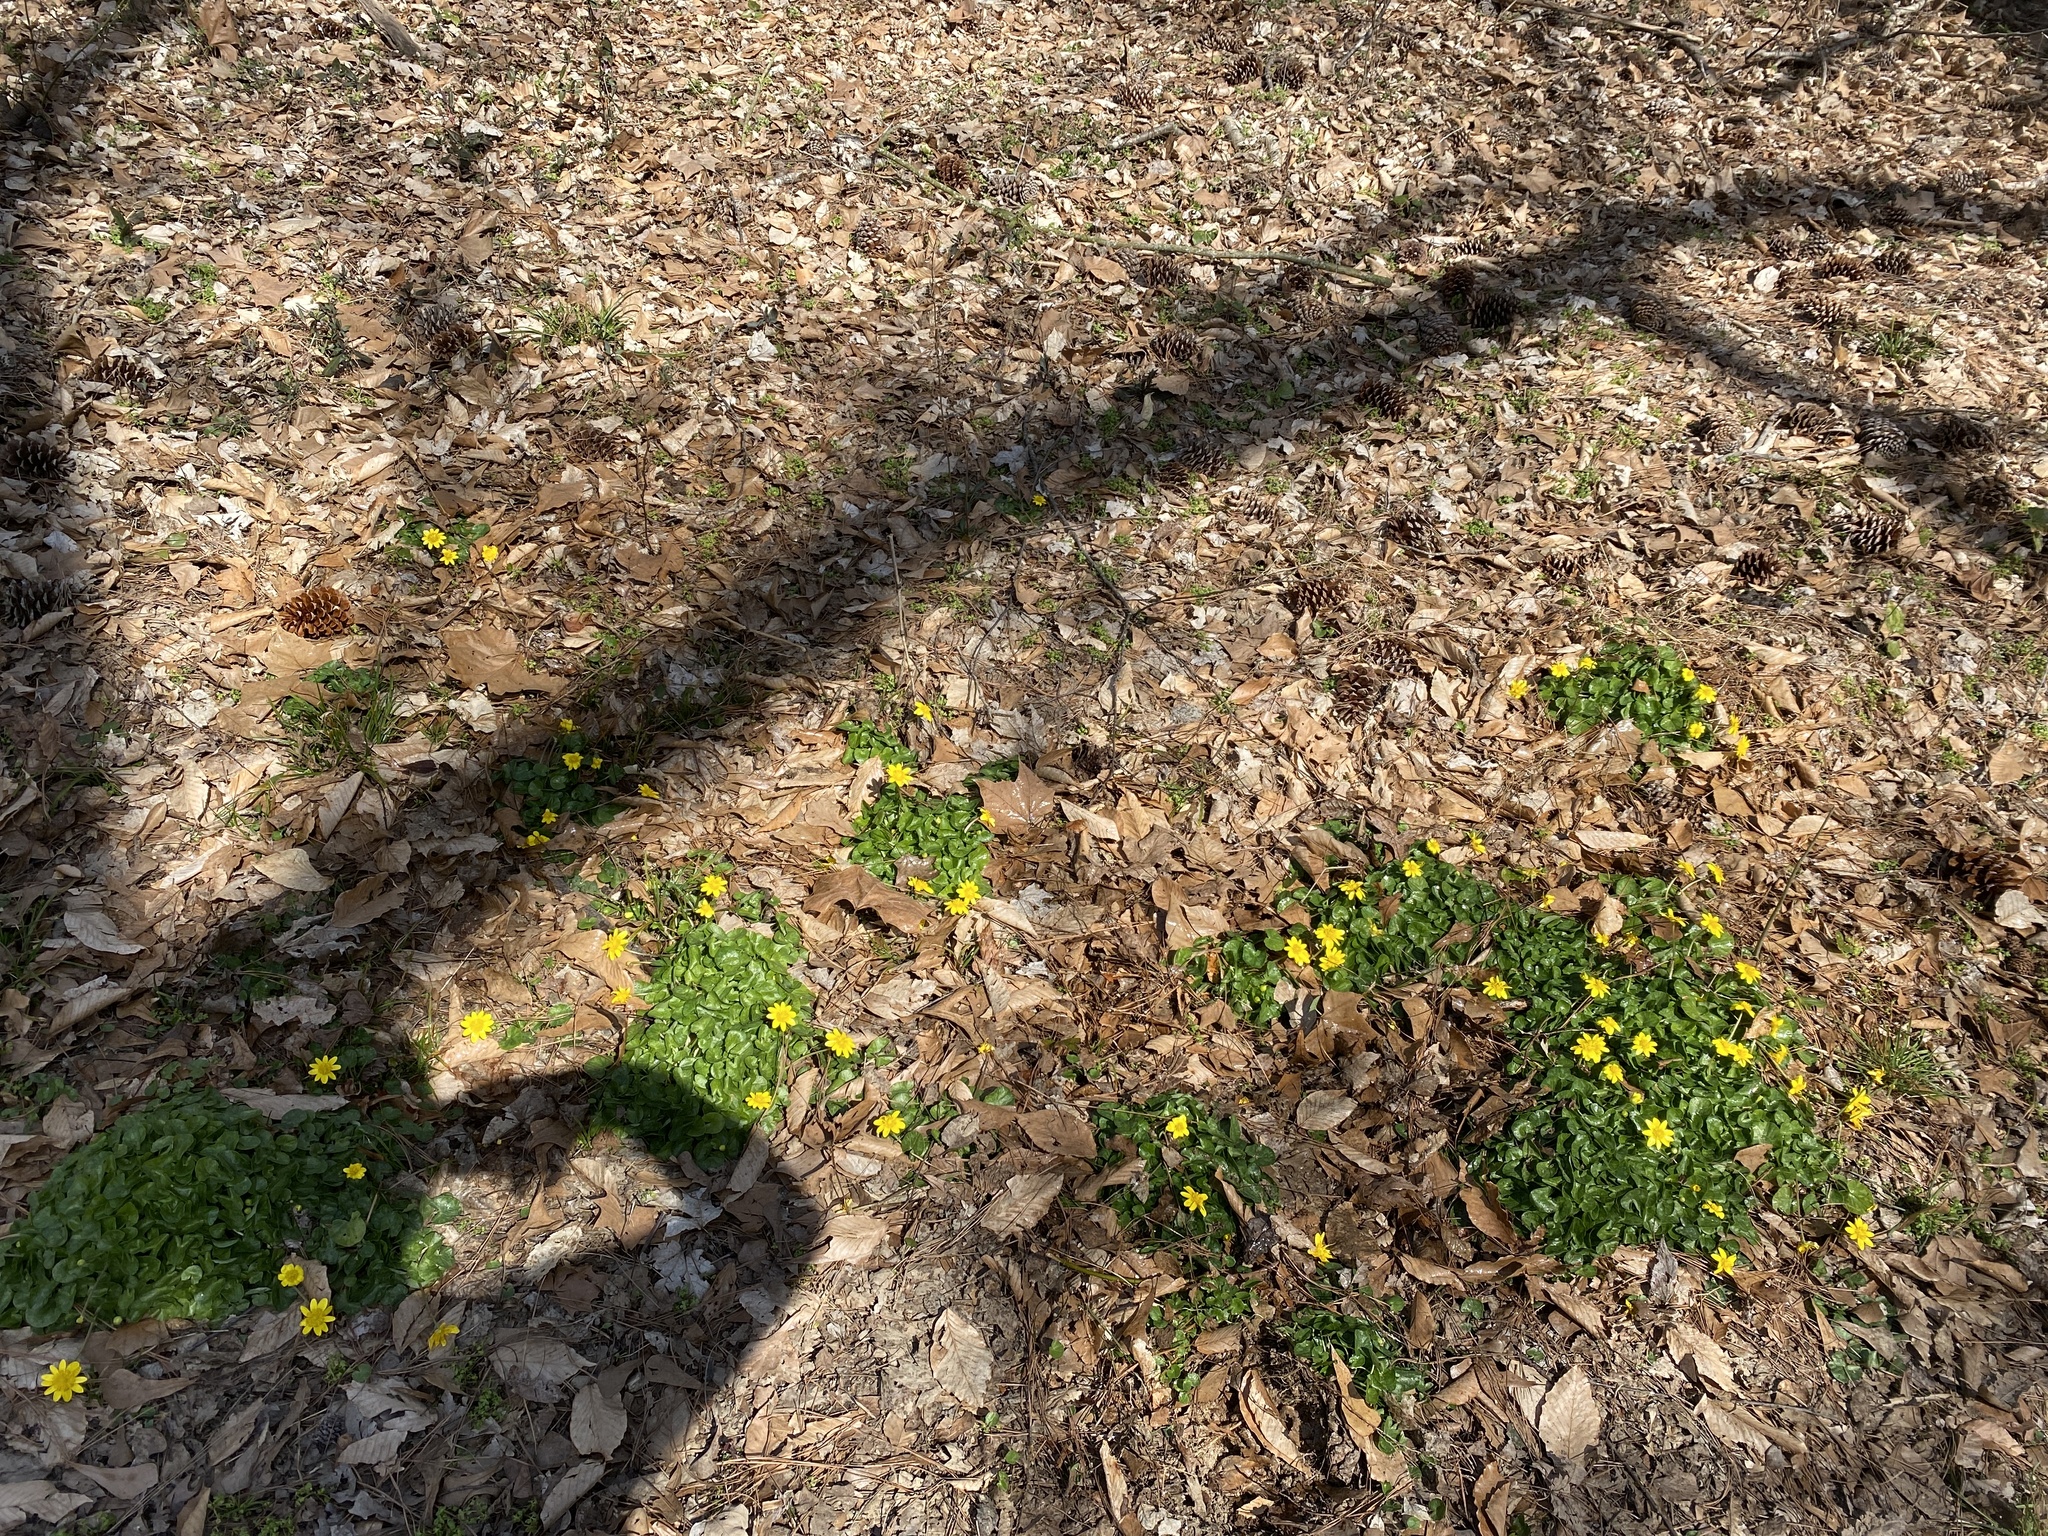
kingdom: Plantae
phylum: Tracheophyta
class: Magnoliopsida
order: Ranunculales
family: Ranunculaceae
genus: Ficaria
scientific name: Ficaria verna
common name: Lesser celandine
